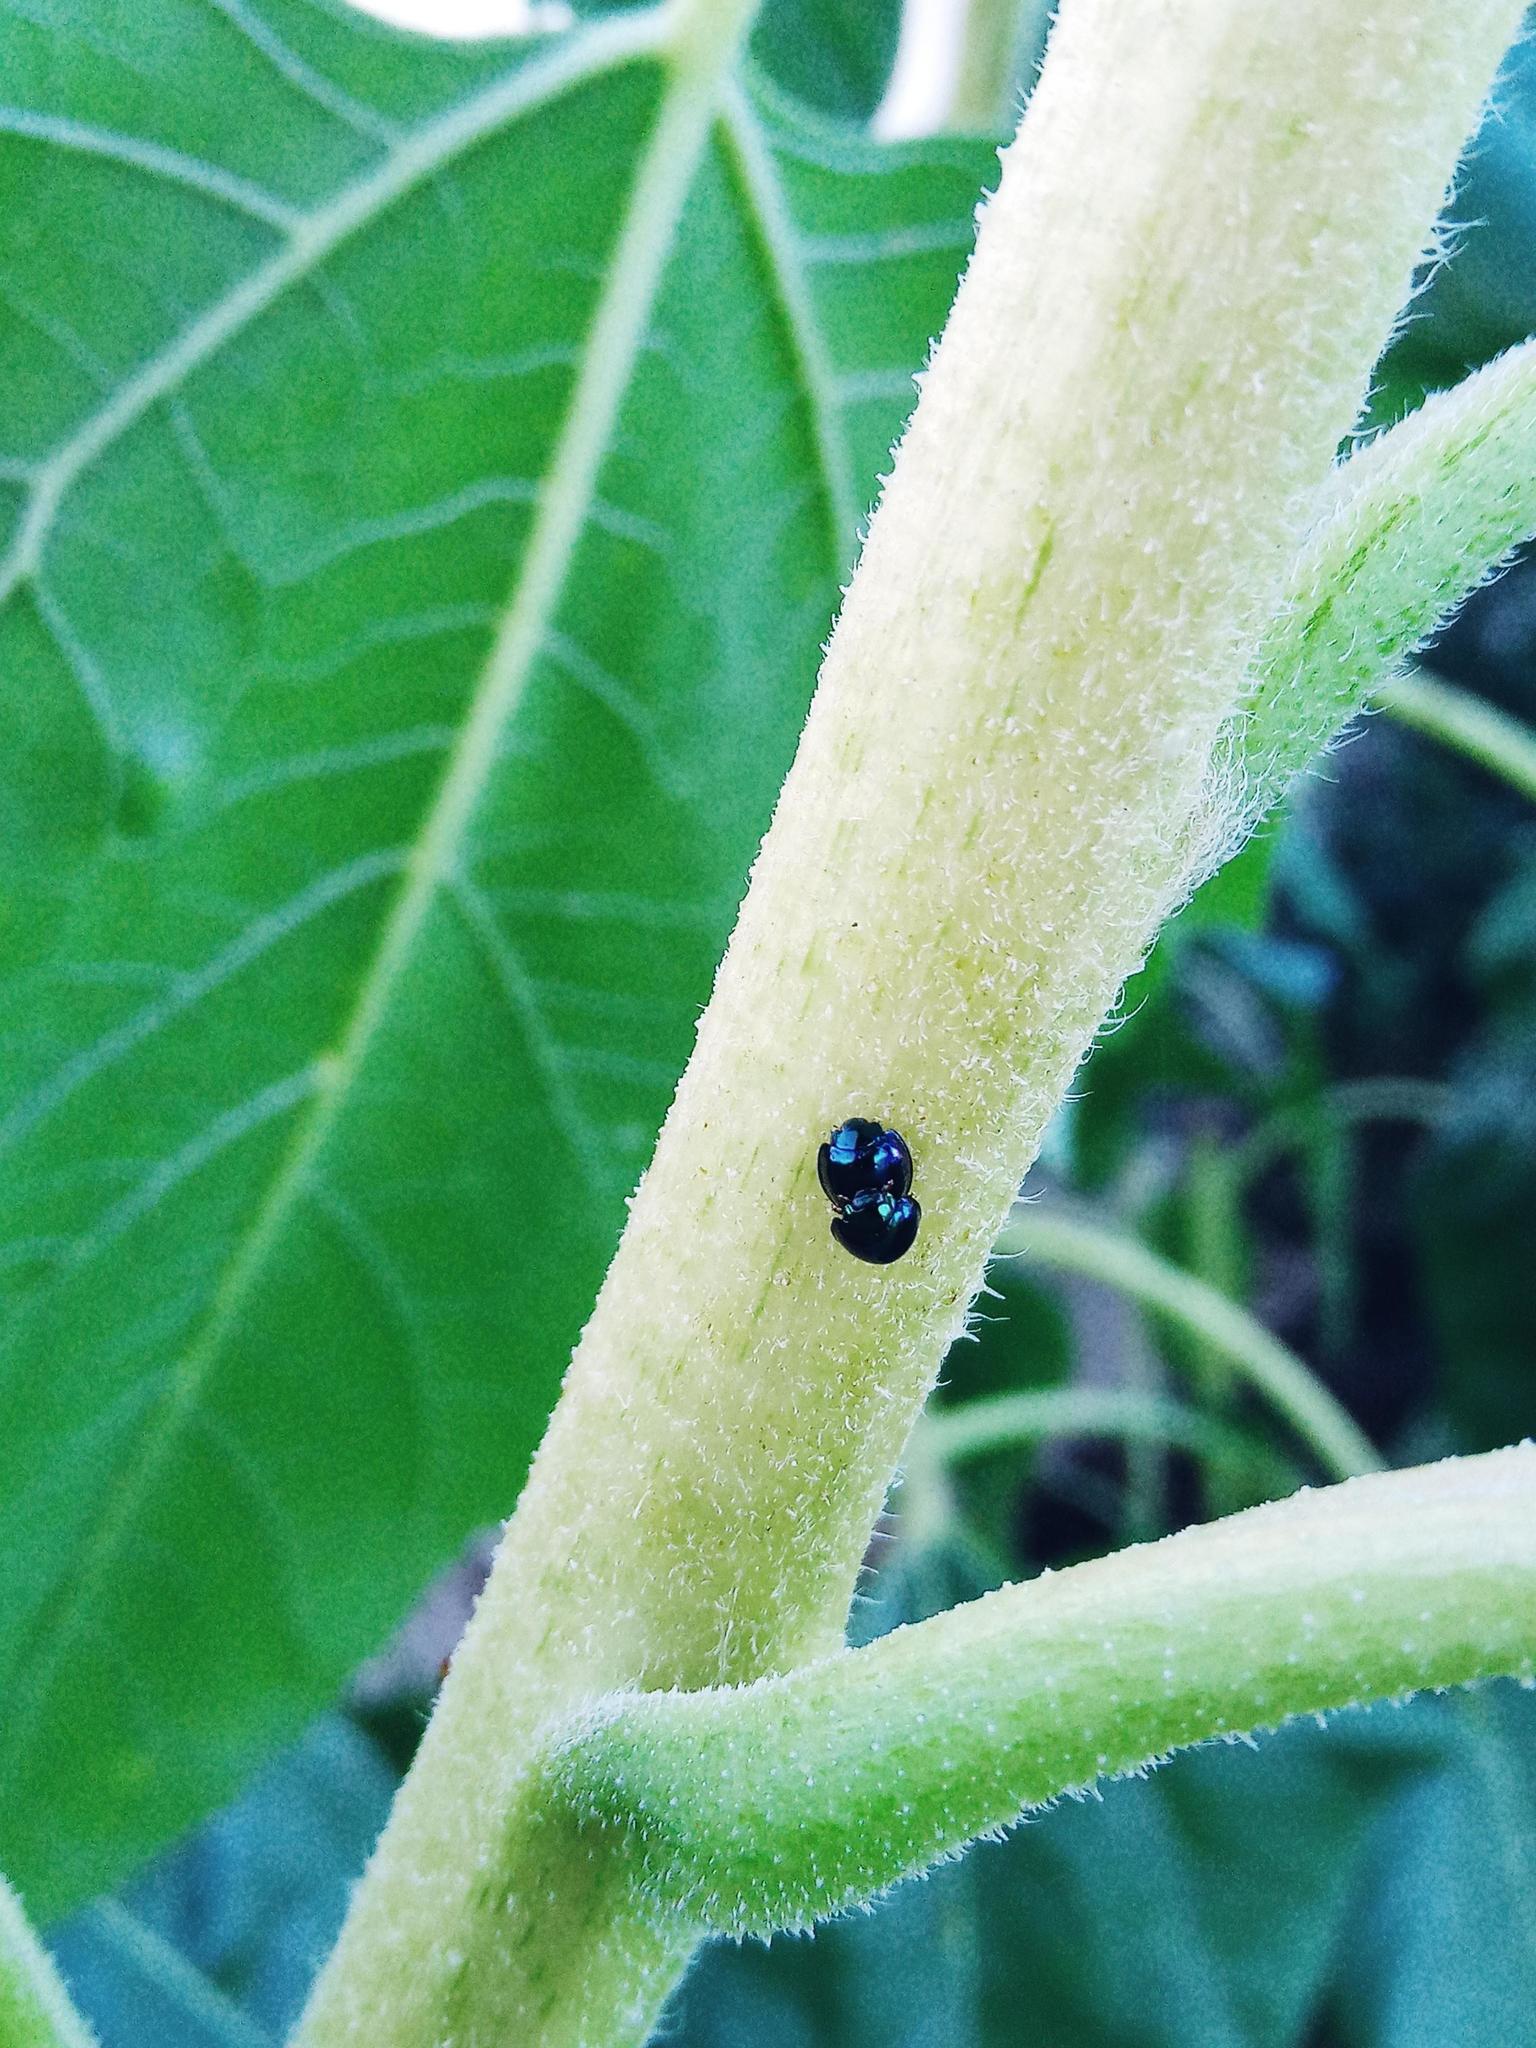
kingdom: Animalia
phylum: Arthropoda
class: Insecta
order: Coleoptera
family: Coccinellidae
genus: Halmus
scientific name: Halmus chalybeus
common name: Steel blue ladybird beetle
